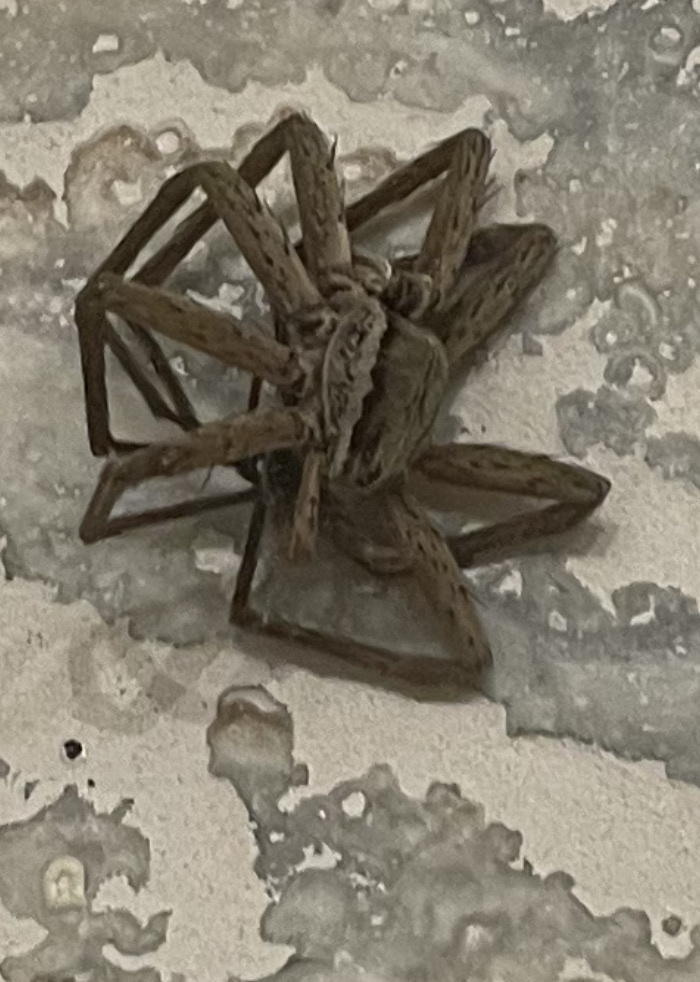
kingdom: Animalia
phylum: Arthropoda
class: Arachnida
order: Araneae
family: Pisauridae
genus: Dolomedes
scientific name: Dolomedes minor
